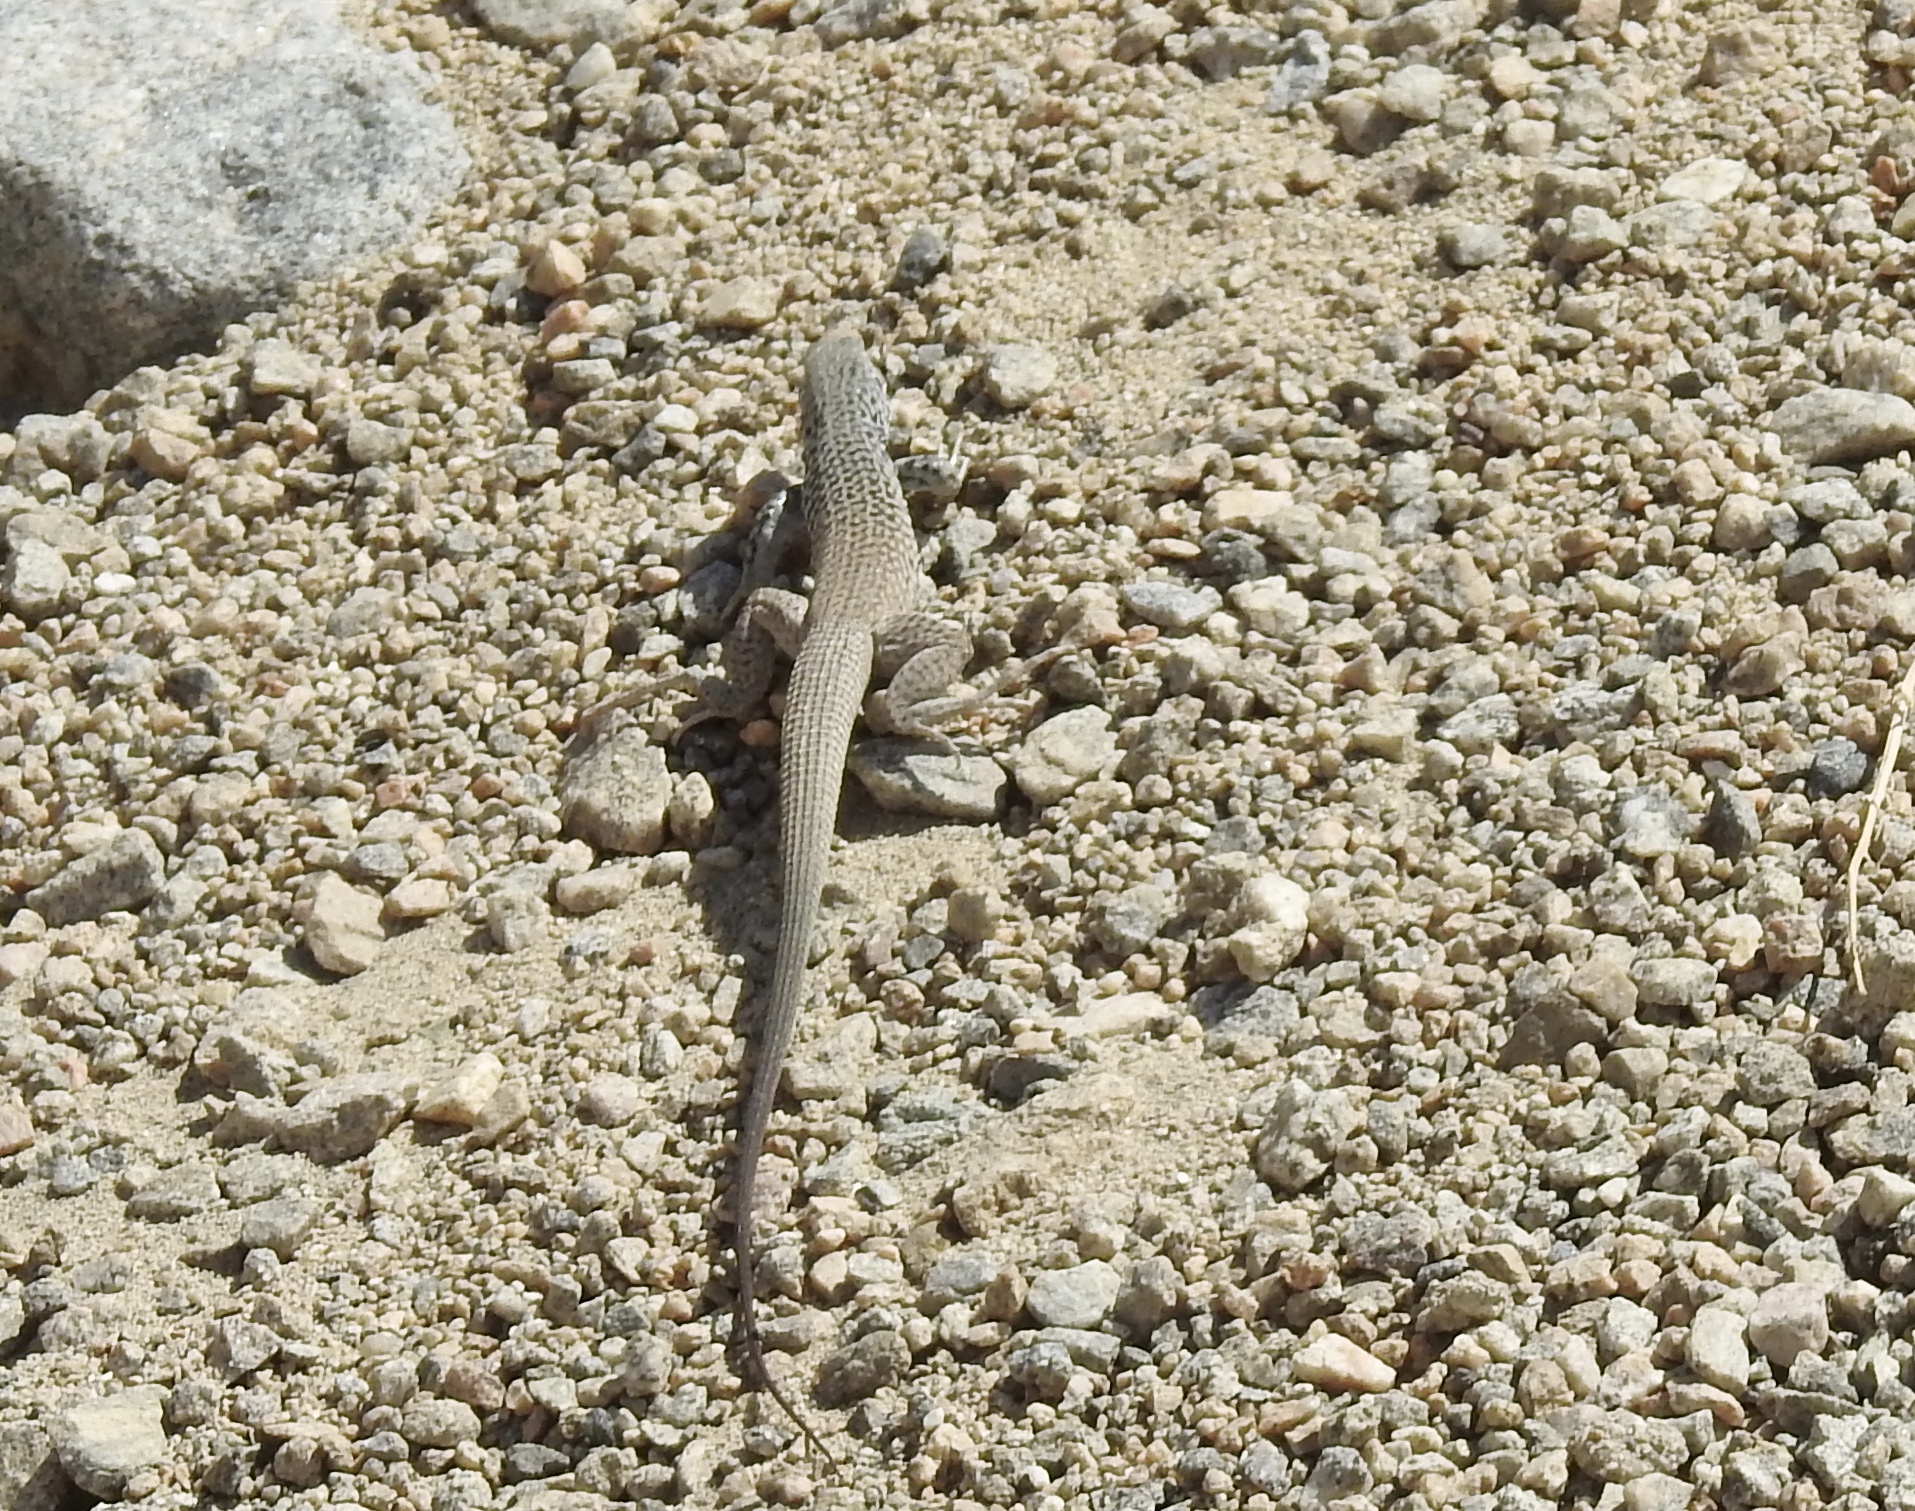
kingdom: Animalia
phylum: Chordata
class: Squamata
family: Teiidae
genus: Aspidoscelis
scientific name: Aspidoscelis tigris
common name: Tiger whiptail
